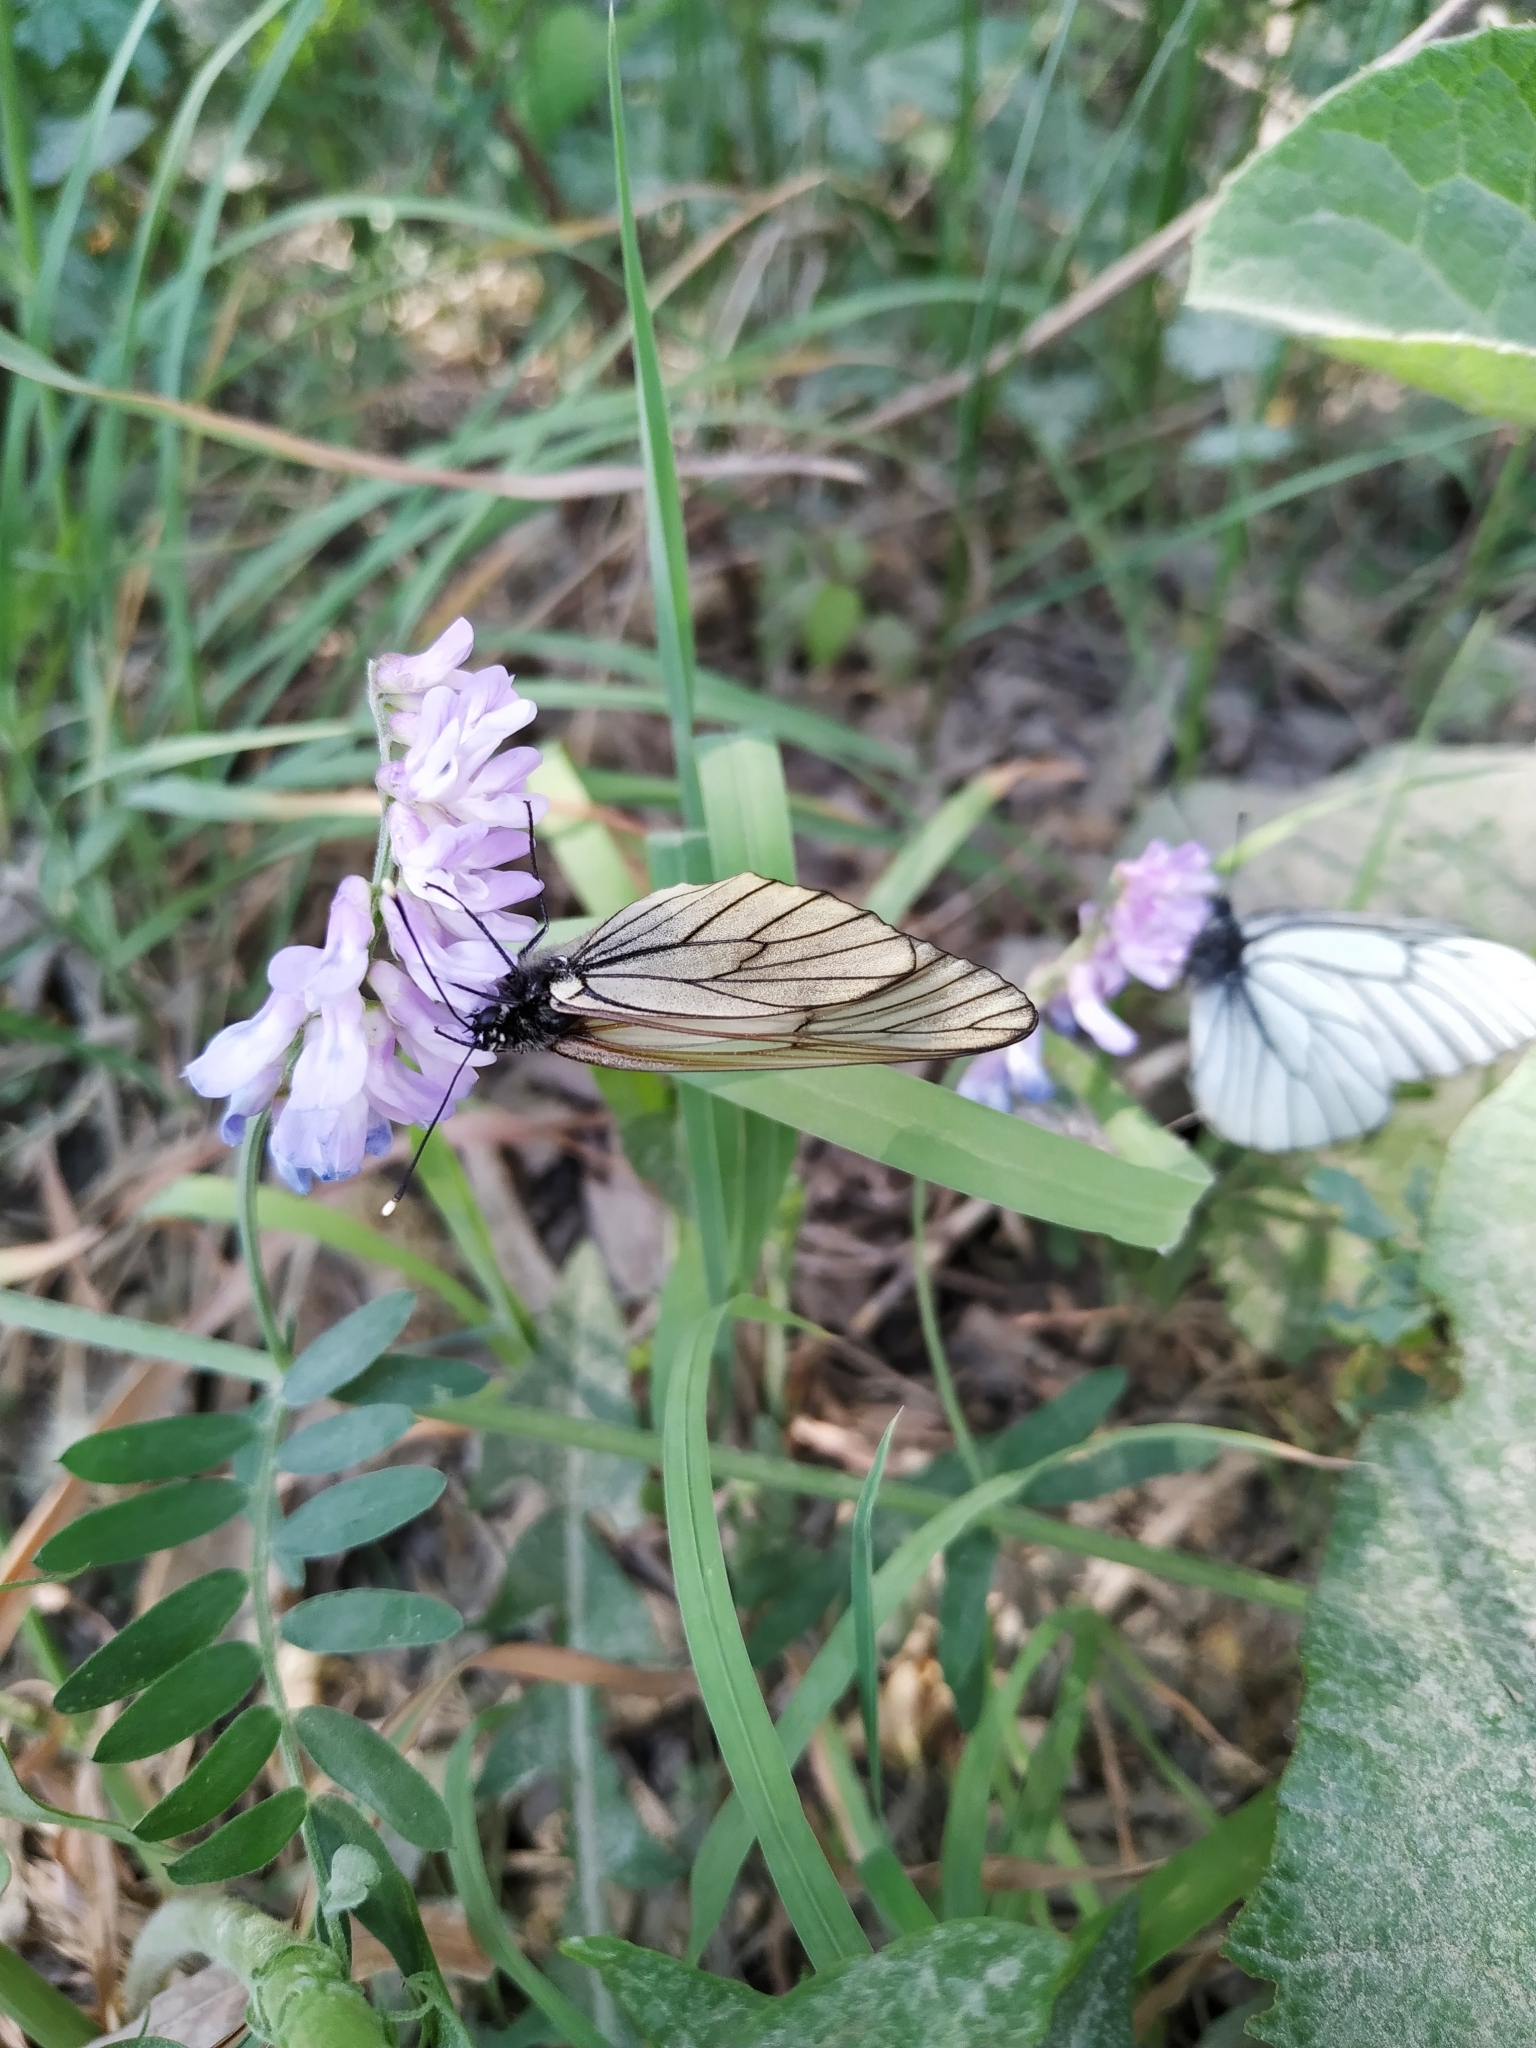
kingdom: Animalia
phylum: Arthropoda
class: Insecta
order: Lepidoptera
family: Pieridae
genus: Aporia
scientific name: Aporia crataegi
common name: Black-veined white
